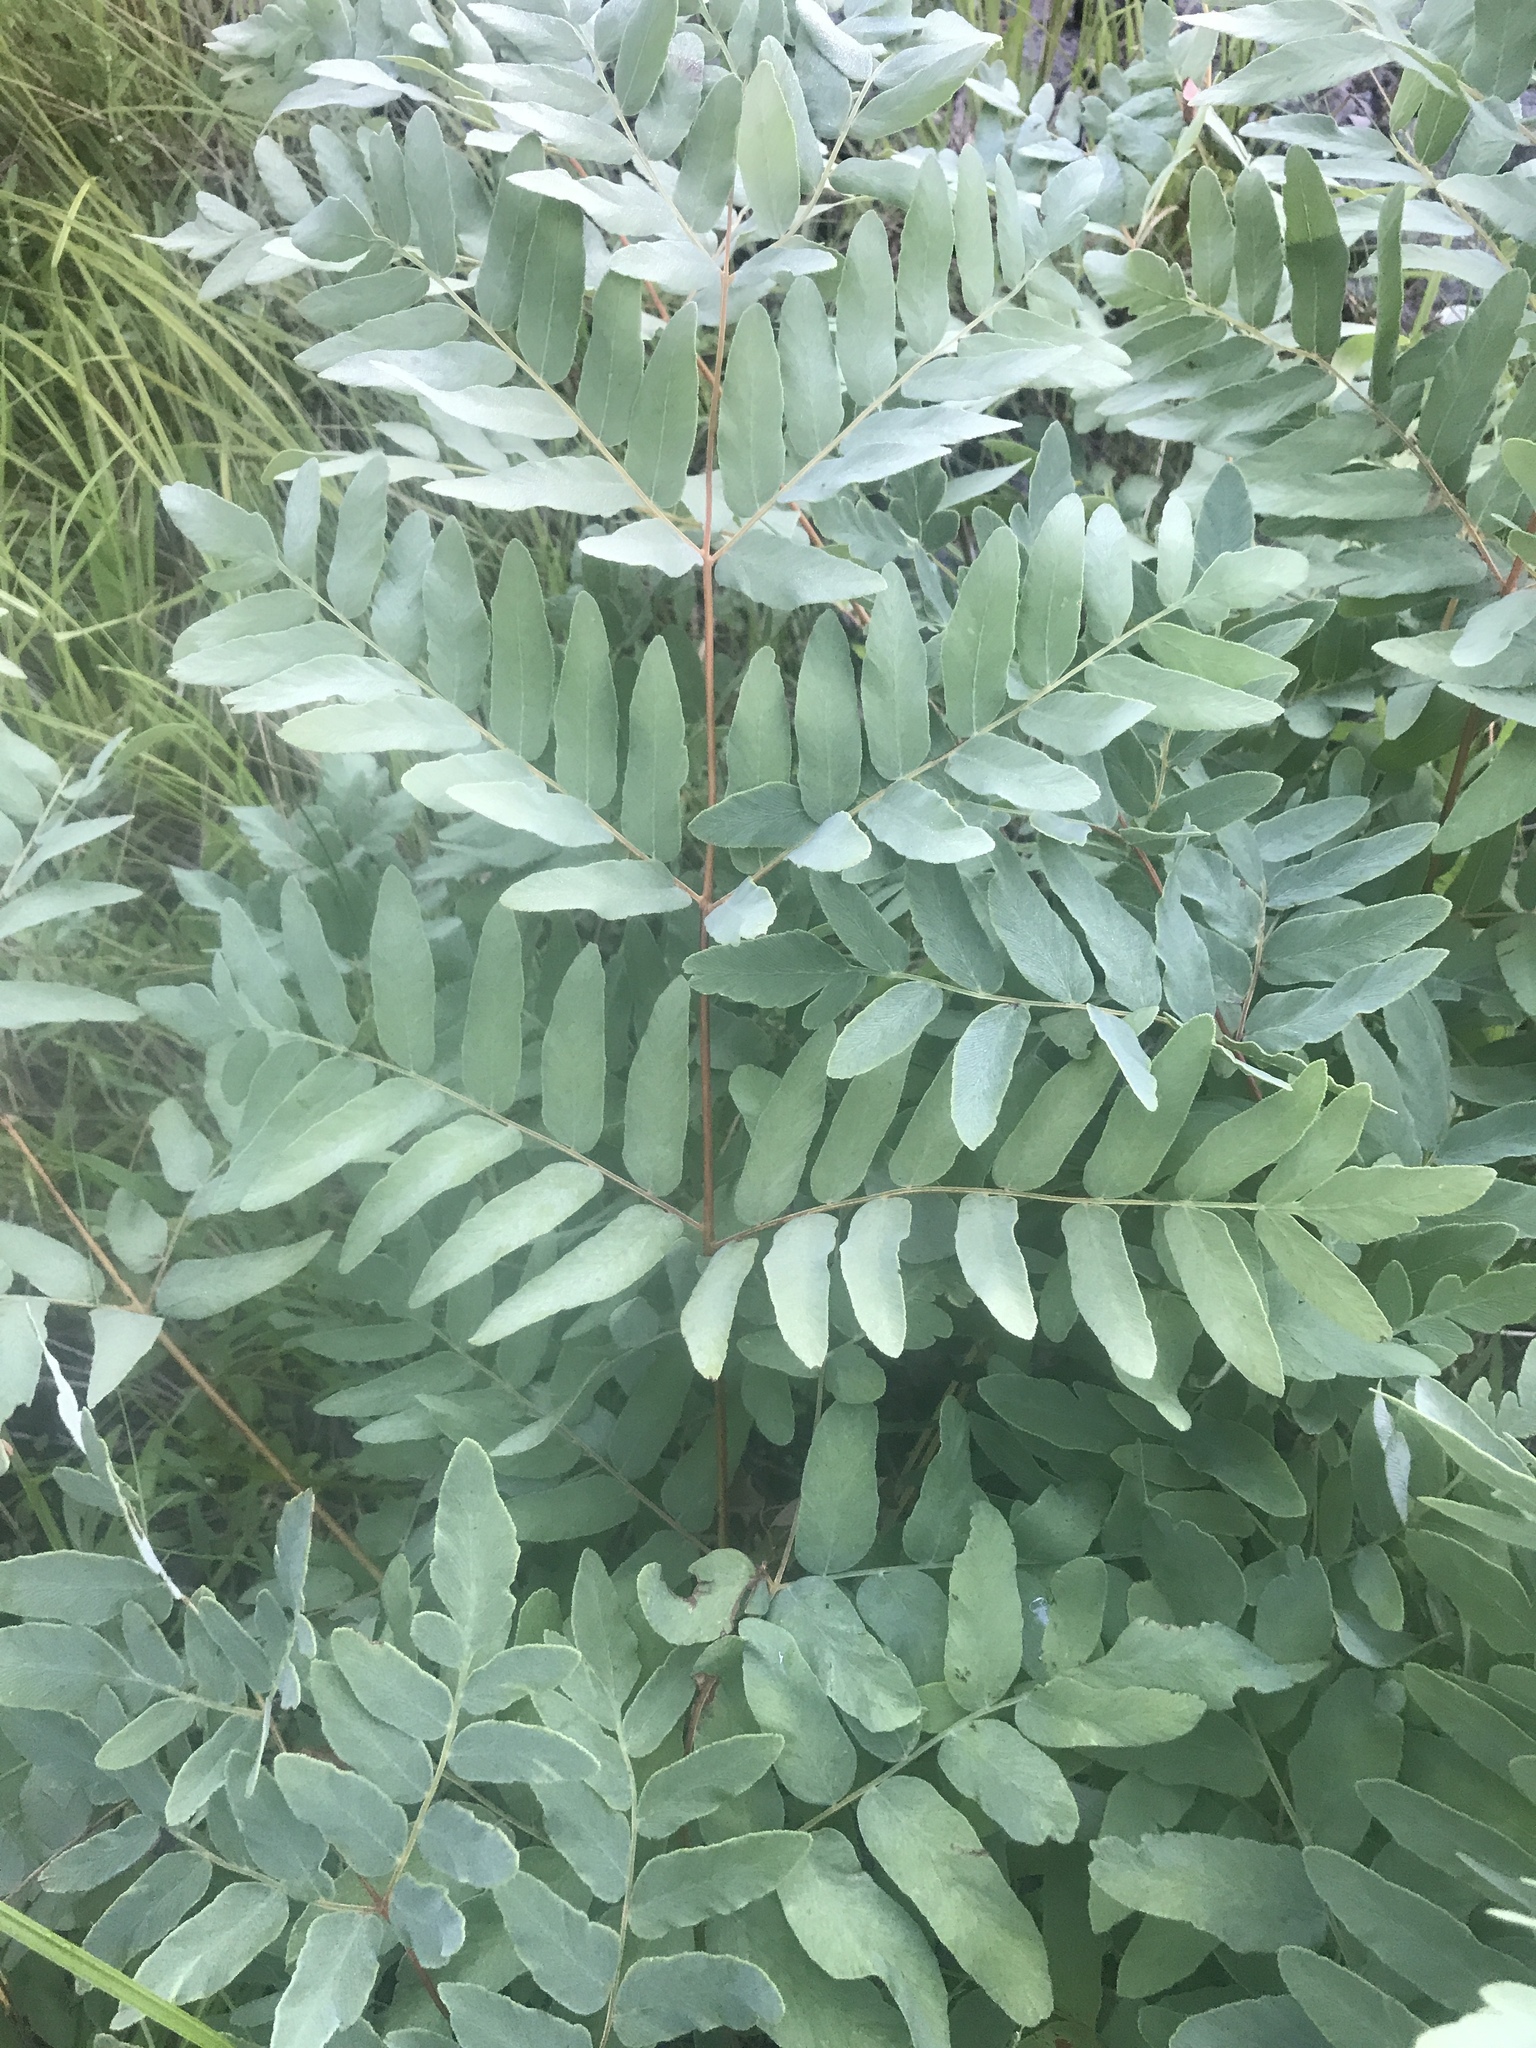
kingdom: Plantae
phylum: Tracheophyta
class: Polypodiopsida
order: Osmundales
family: Osmundaceae
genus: Osmunda
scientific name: Osmunda spectabilis
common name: American royal fern
